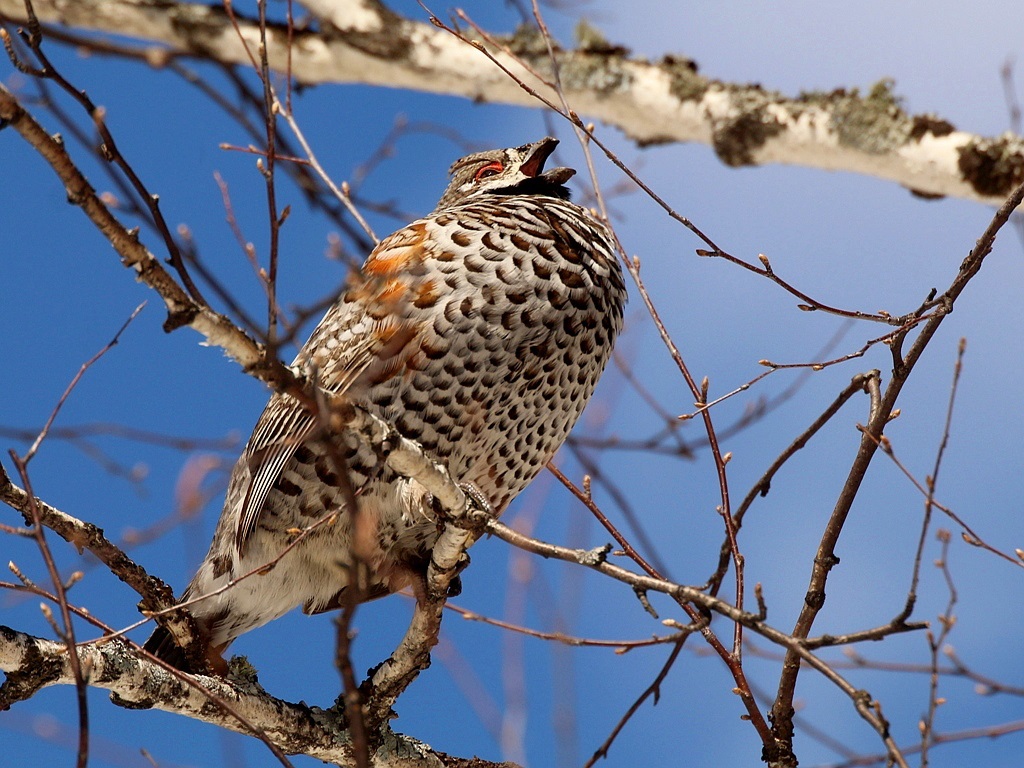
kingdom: Animalia
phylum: Chordata
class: Aves
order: Galliformes
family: Phasianidae
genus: Tetrastes
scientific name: Tetrastes bonasia
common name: Hazel grouse
